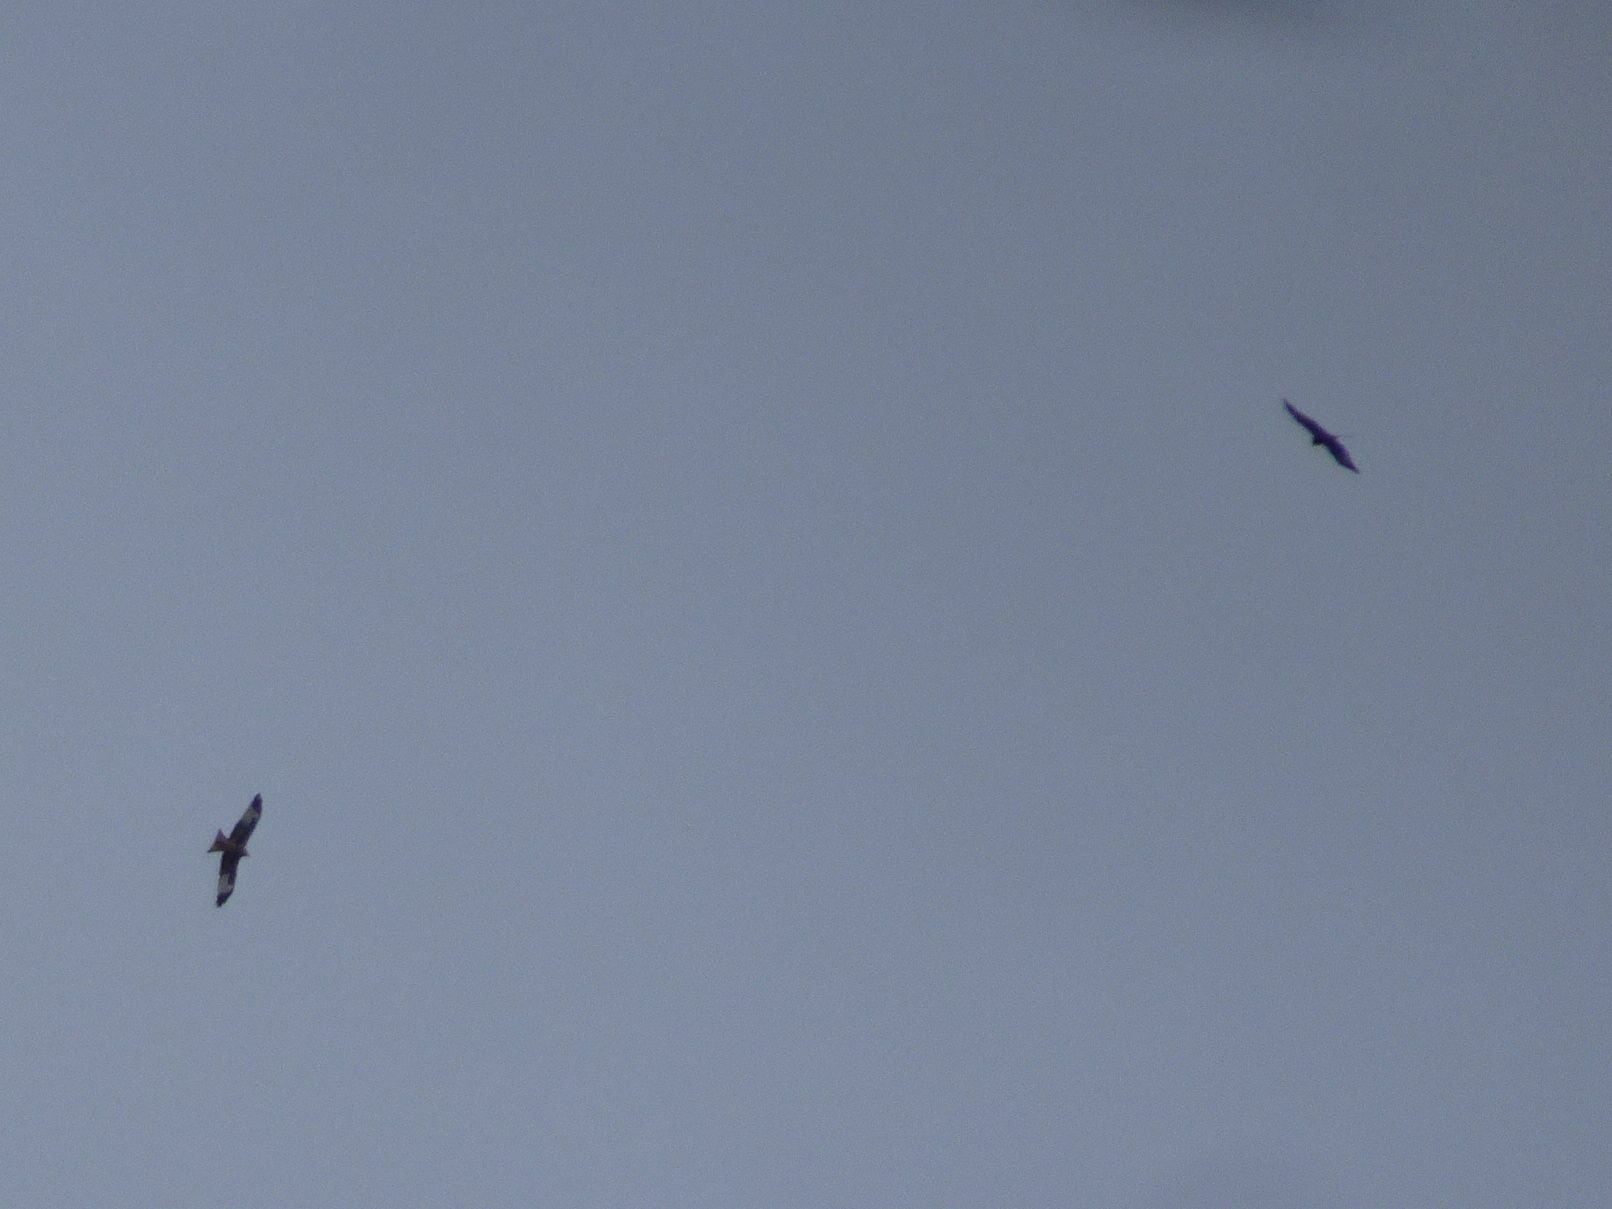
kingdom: Animalia
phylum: Chordata
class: Aves
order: Accipitriformes
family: Accipitridae
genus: Milvus
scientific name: Milvus milvus
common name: Red kite
